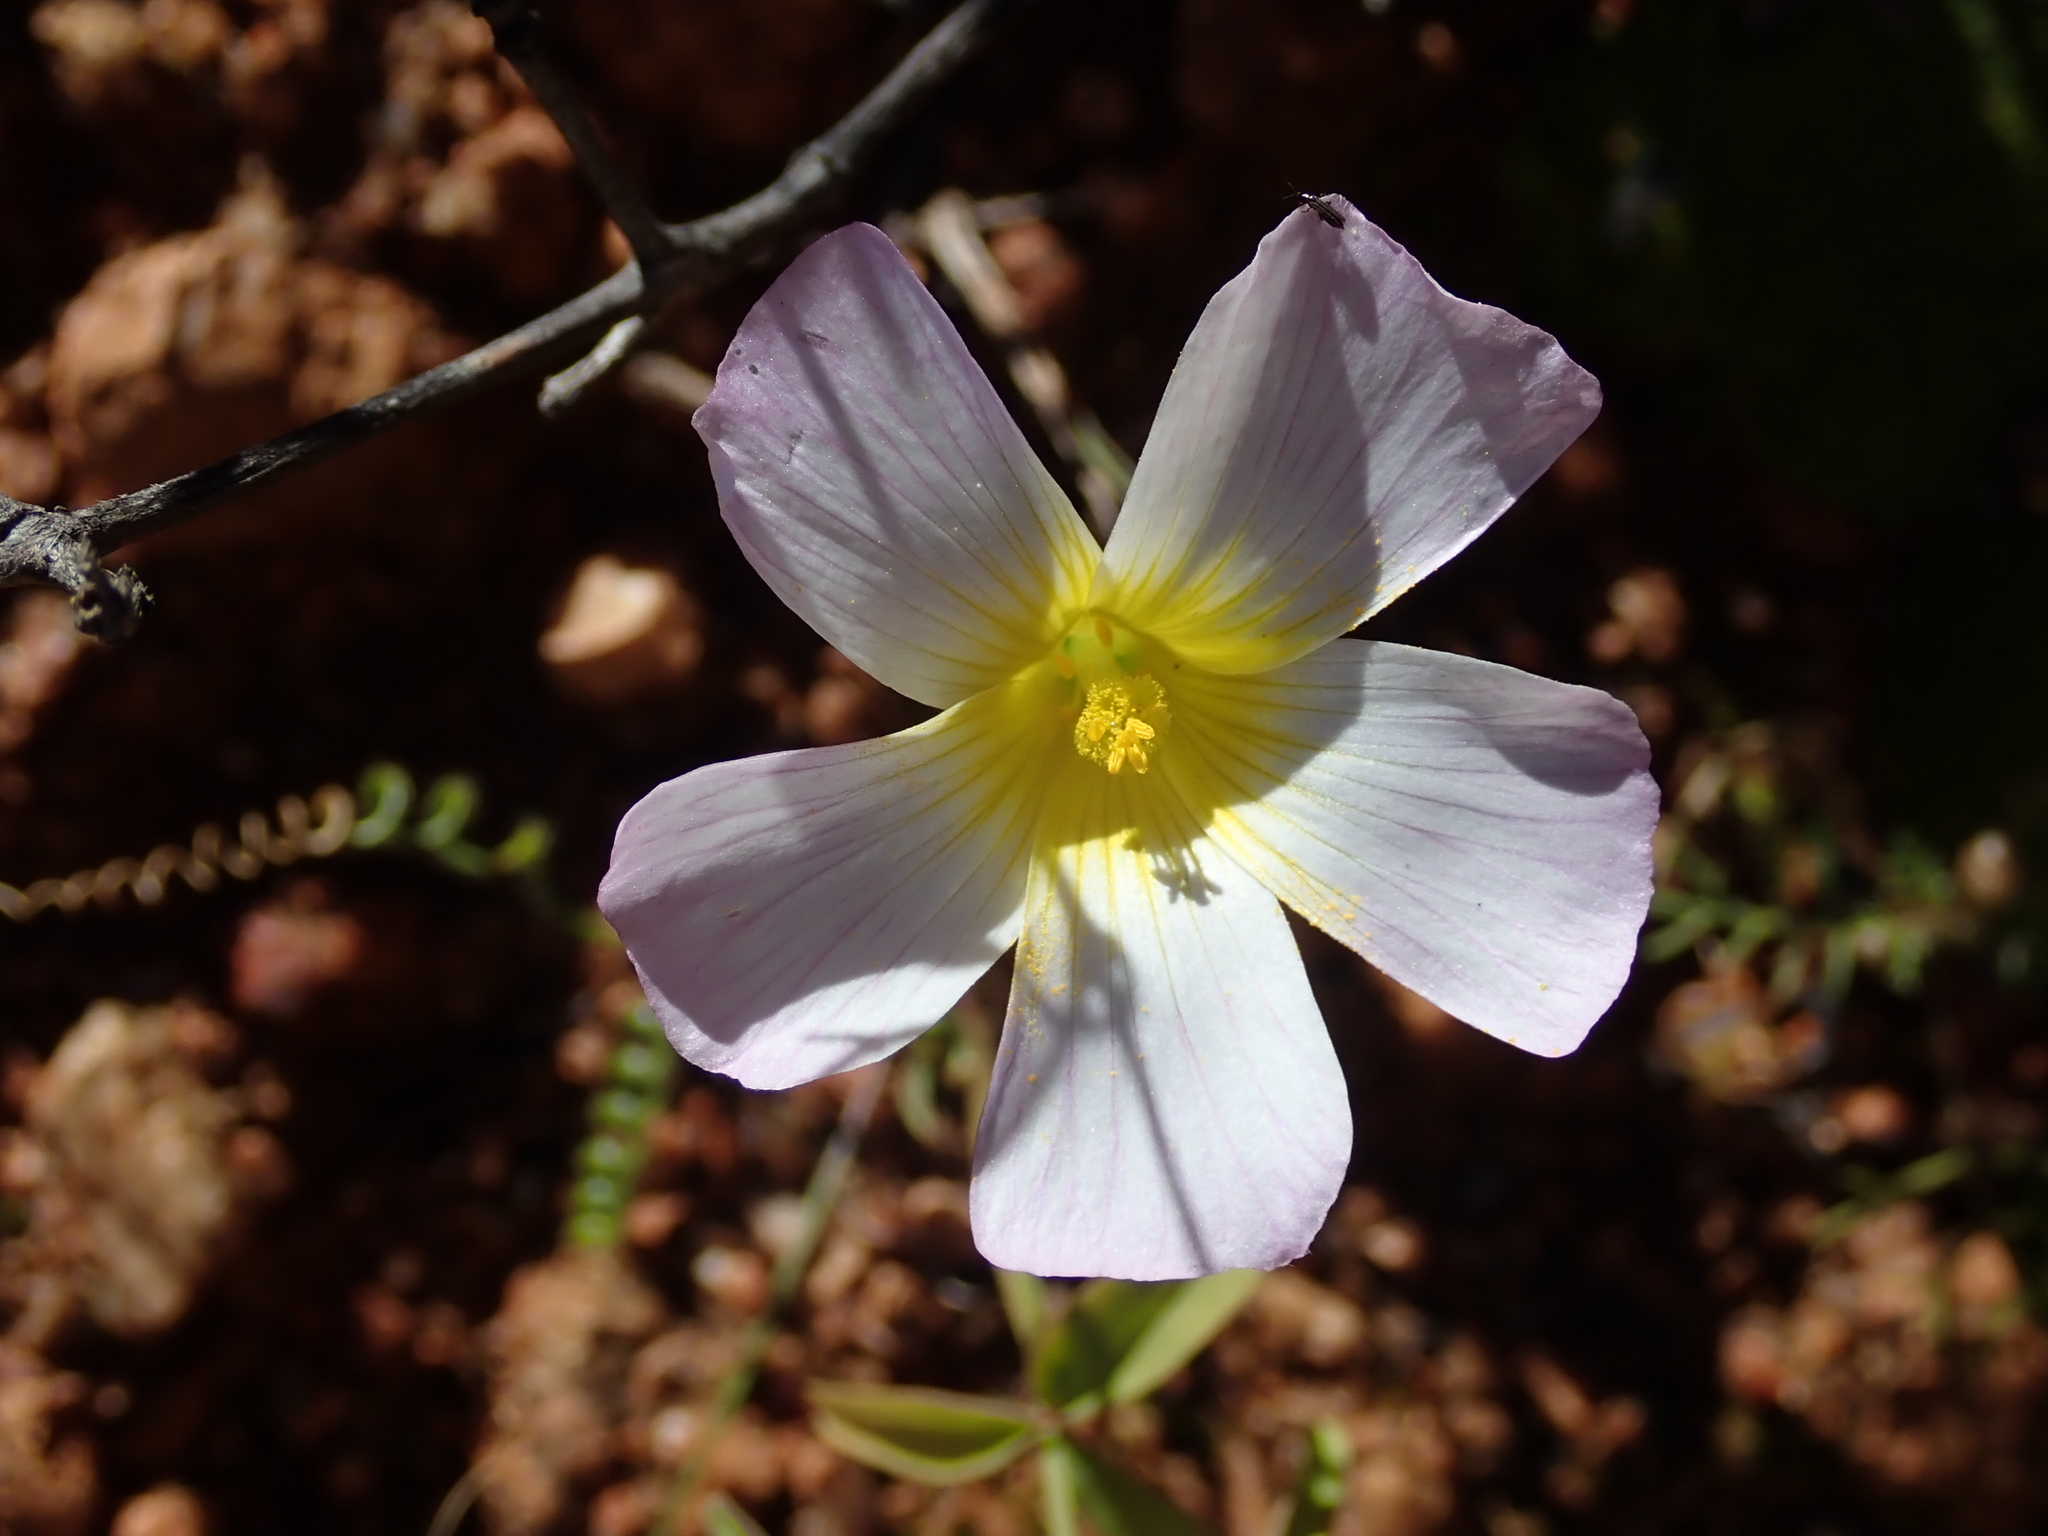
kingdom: Plantae
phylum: Tracheophyta
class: Magnoliopsida
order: Oxalidales
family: Oxalidaceae
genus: Oxalis
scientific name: Oxalis obtusa
